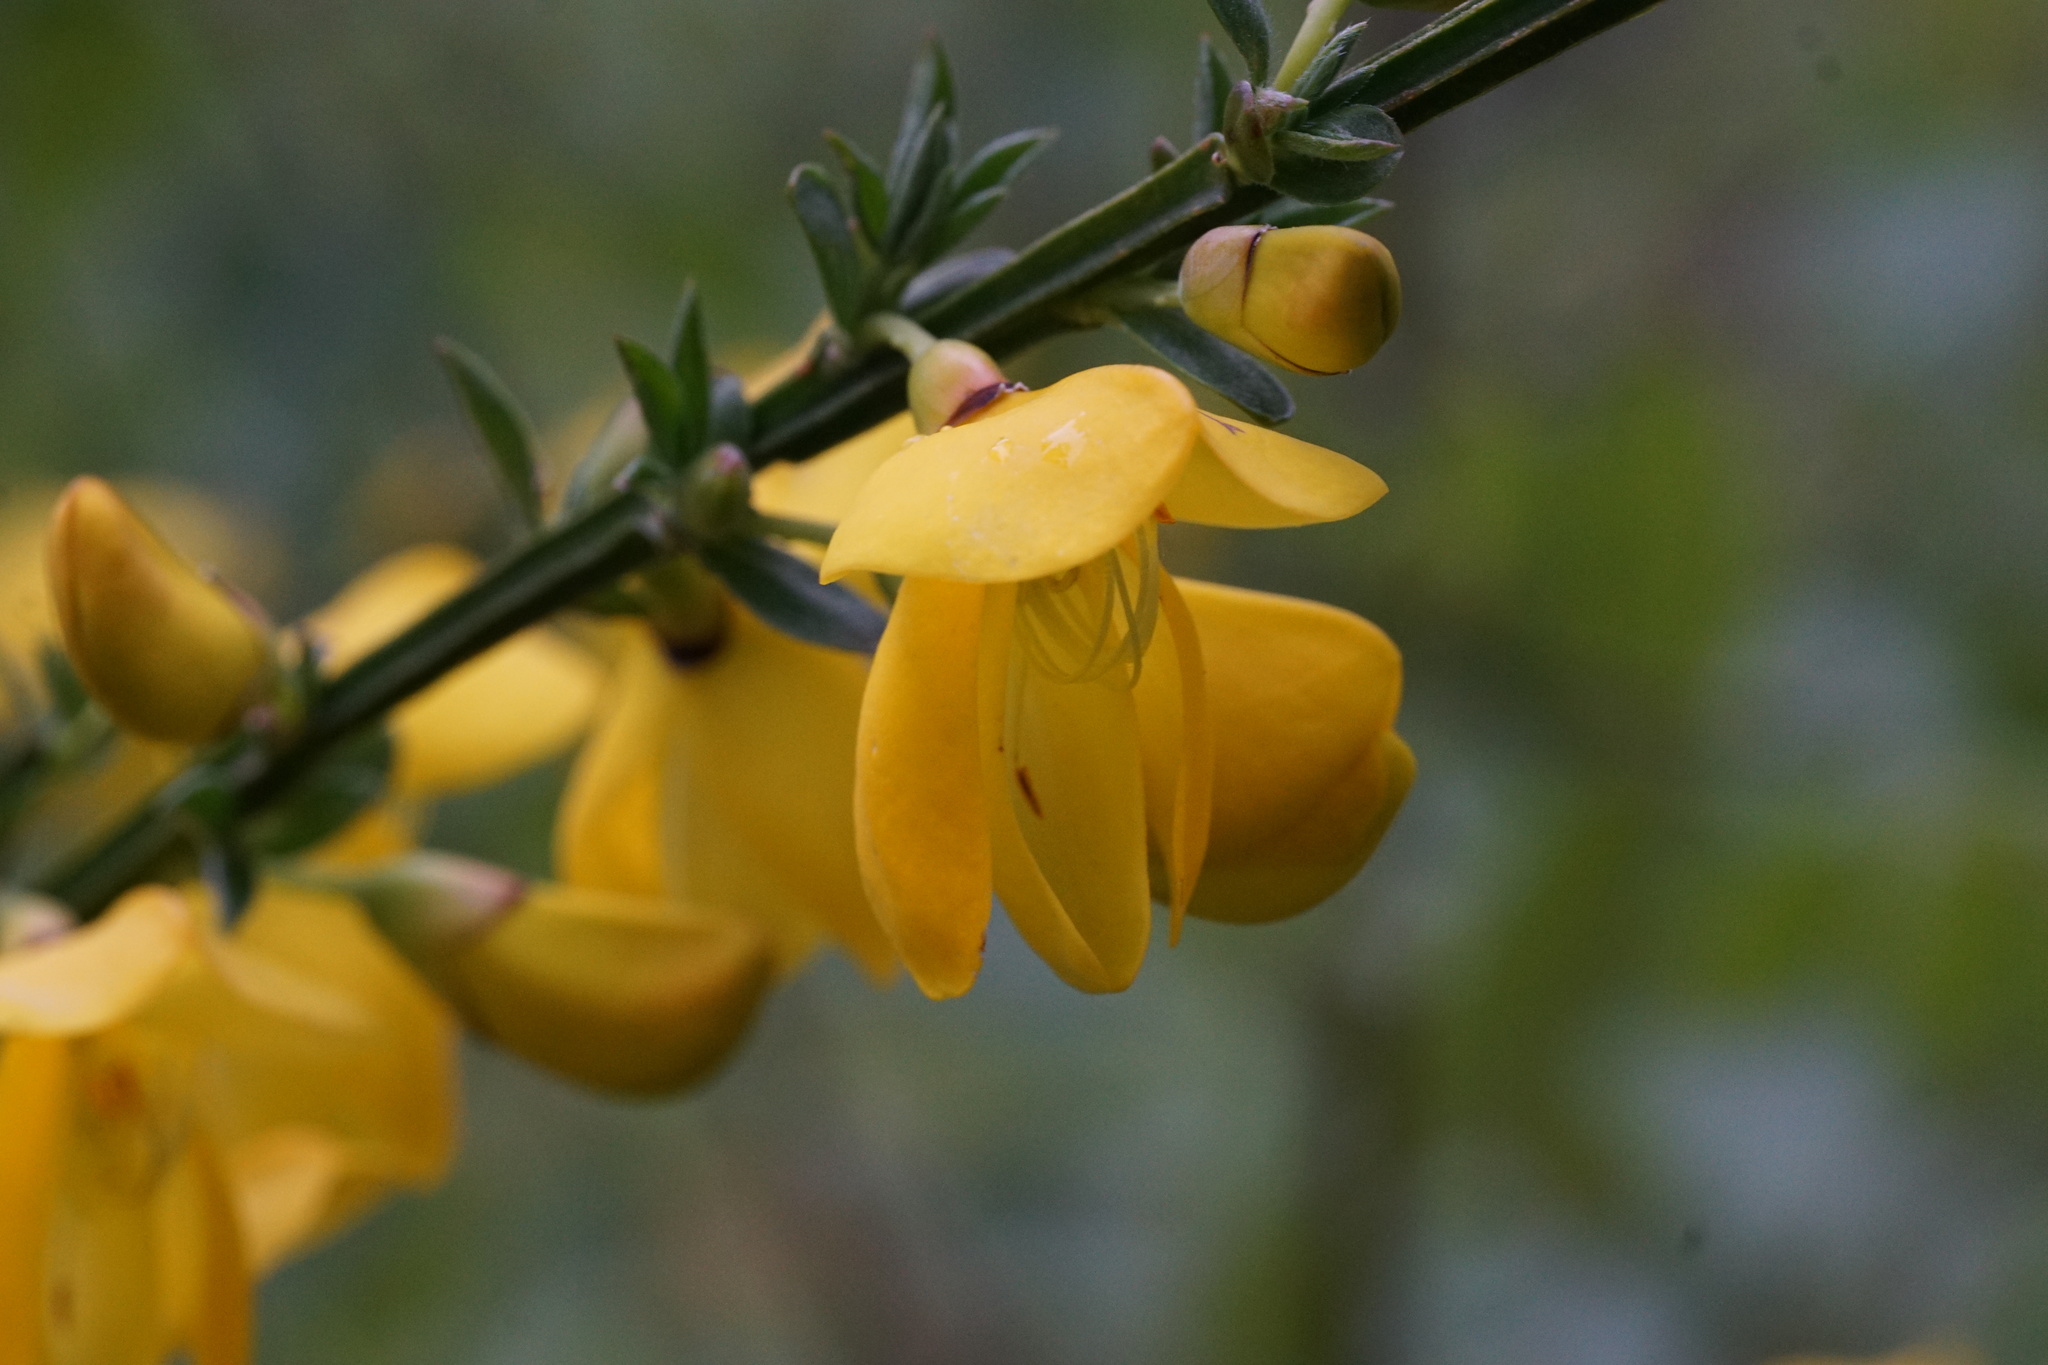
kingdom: Plantae
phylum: Tracheophyta
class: Magnoliopsida
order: Fabales
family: Fabaceae
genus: Cytisus
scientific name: Cytisus scoparius
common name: Scotch broom
